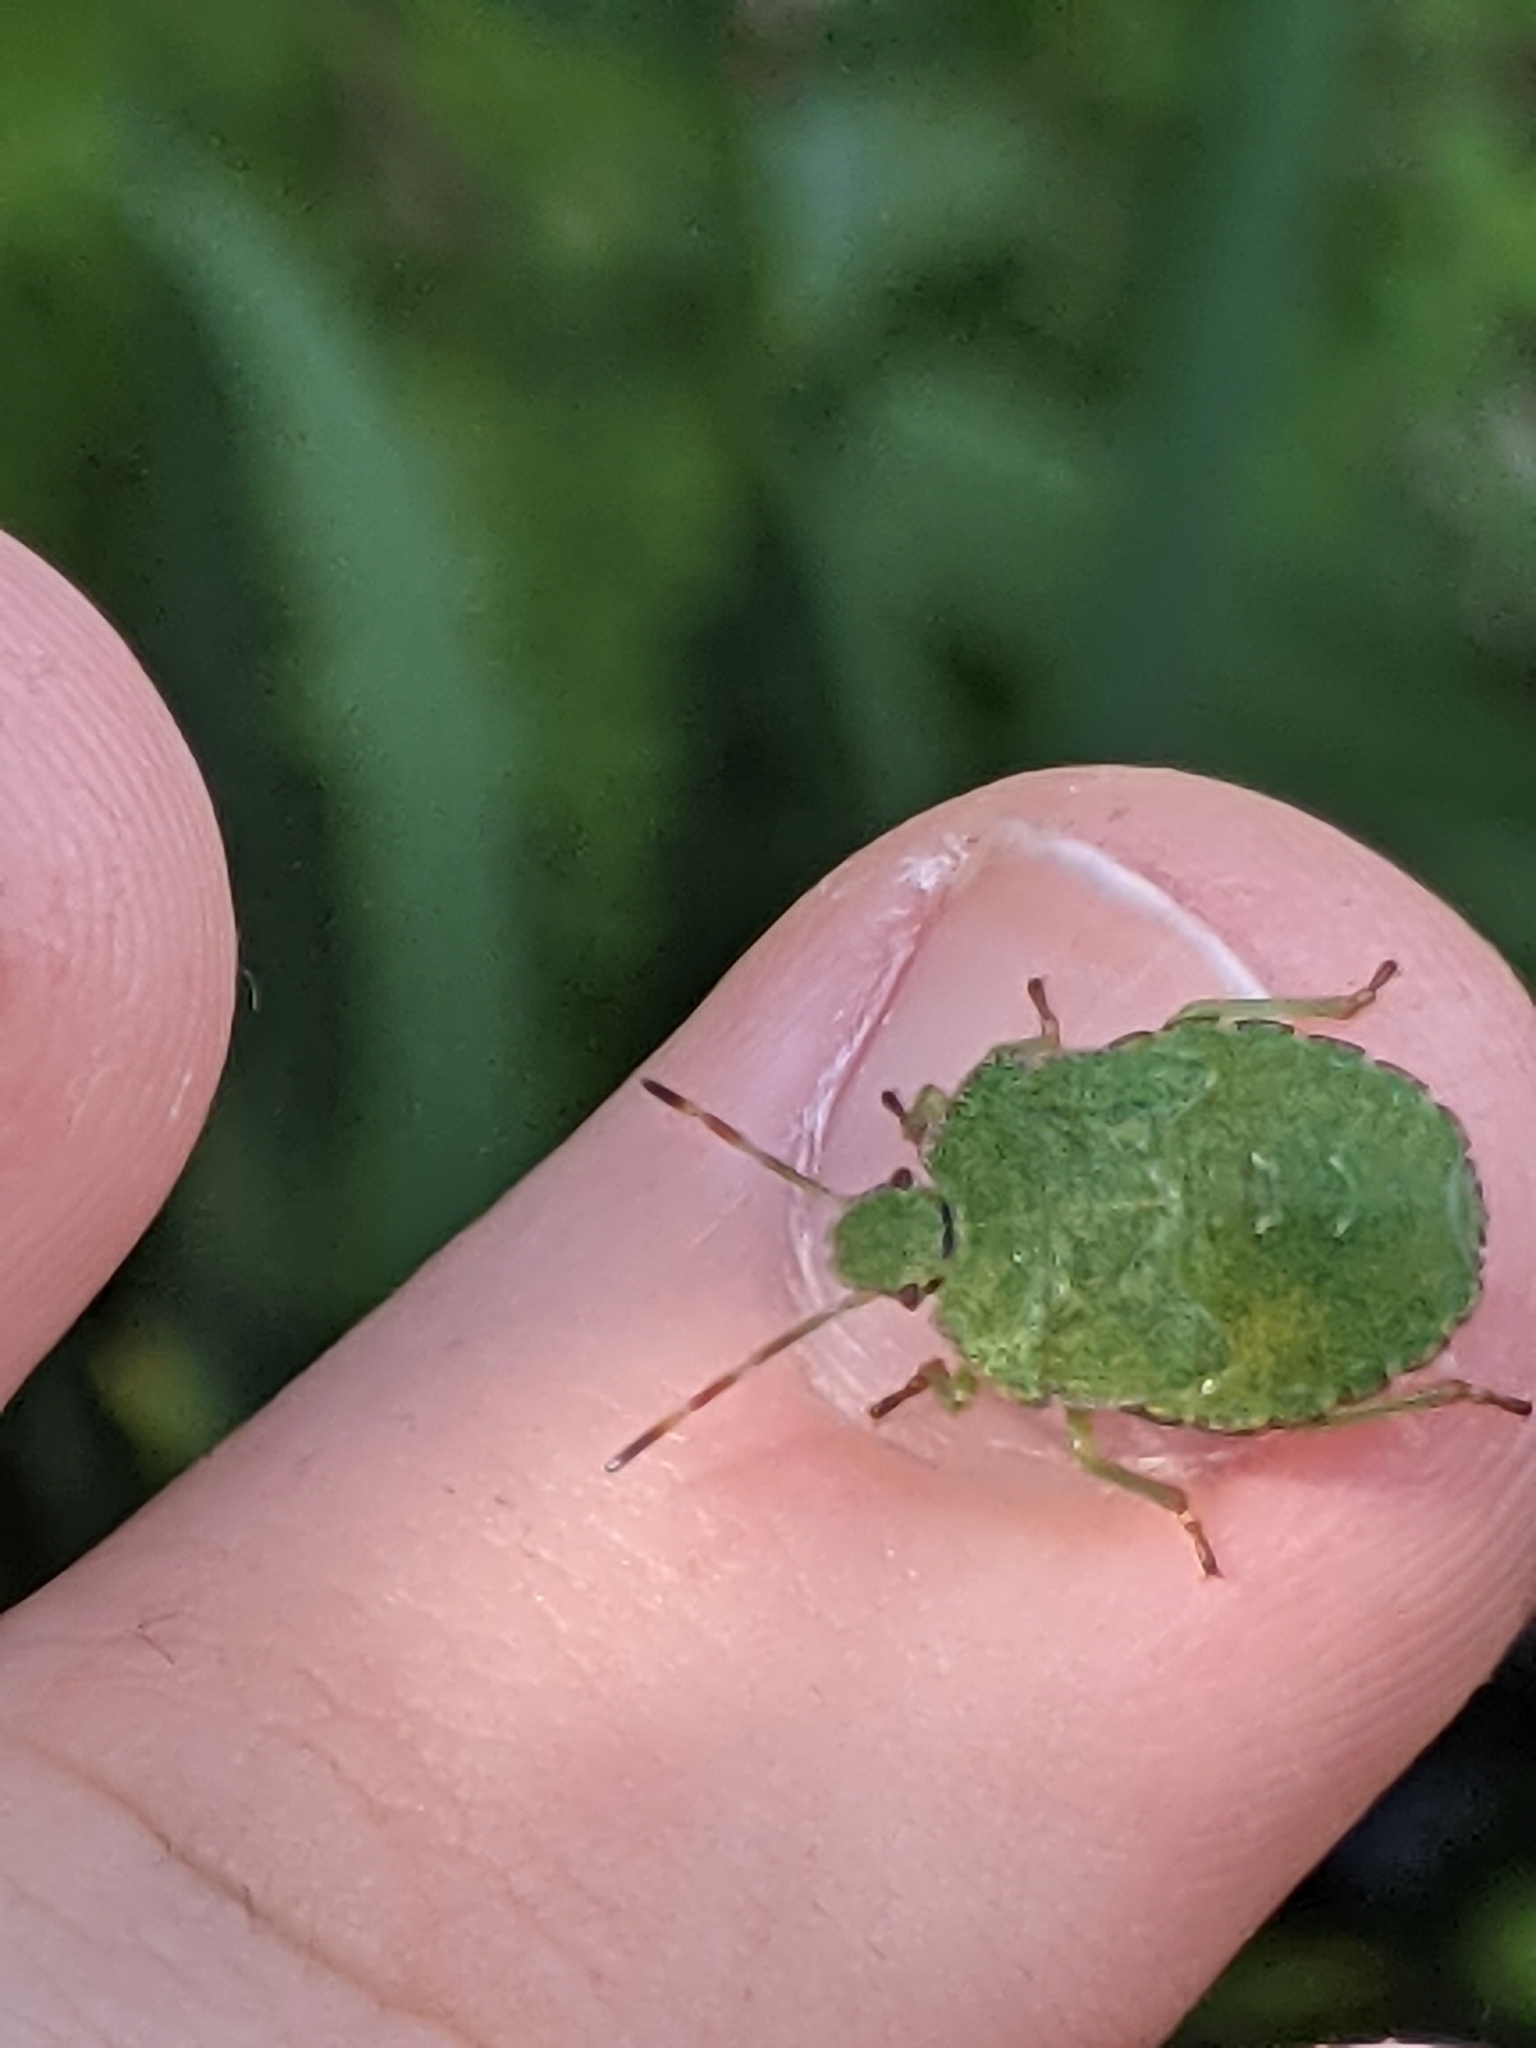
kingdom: Animalia
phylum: Arthropoda
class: Insecta
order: Hemiptera
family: Pentatomidae
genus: Palomena
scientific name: Palomena prasina
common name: Green shieldbug
